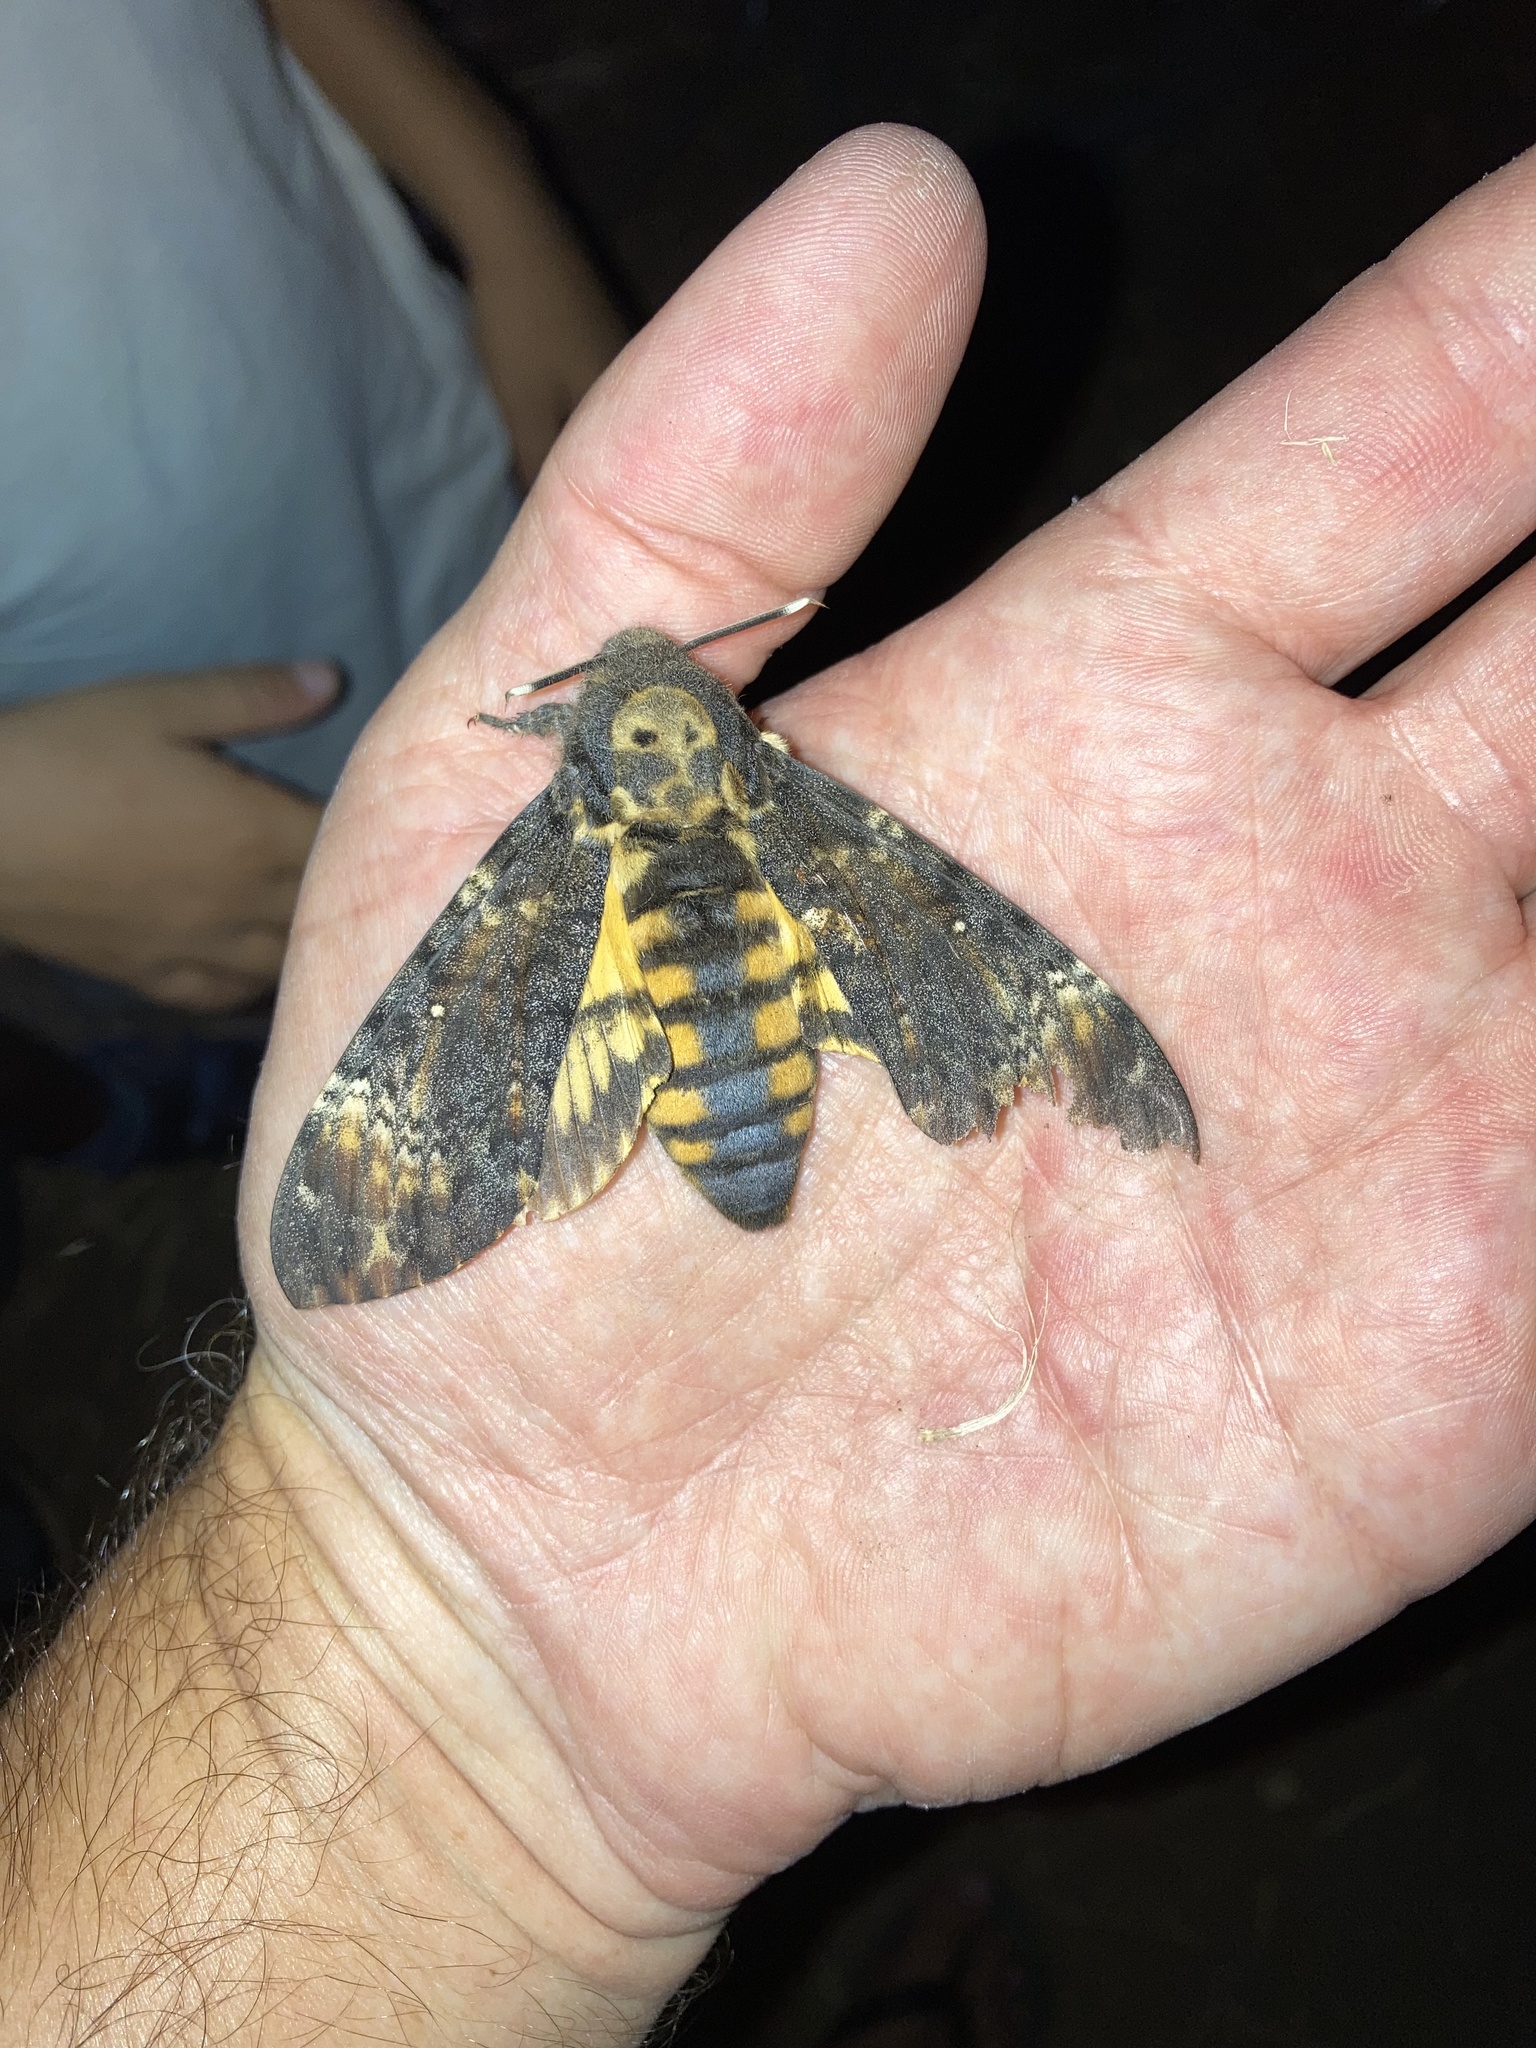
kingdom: Animalia
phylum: Arthropoda
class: Insecta
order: Lepidoptera
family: Sphingidae
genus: Acherontia
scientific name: Acherontia atropos
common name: Death's-head hawk moth
